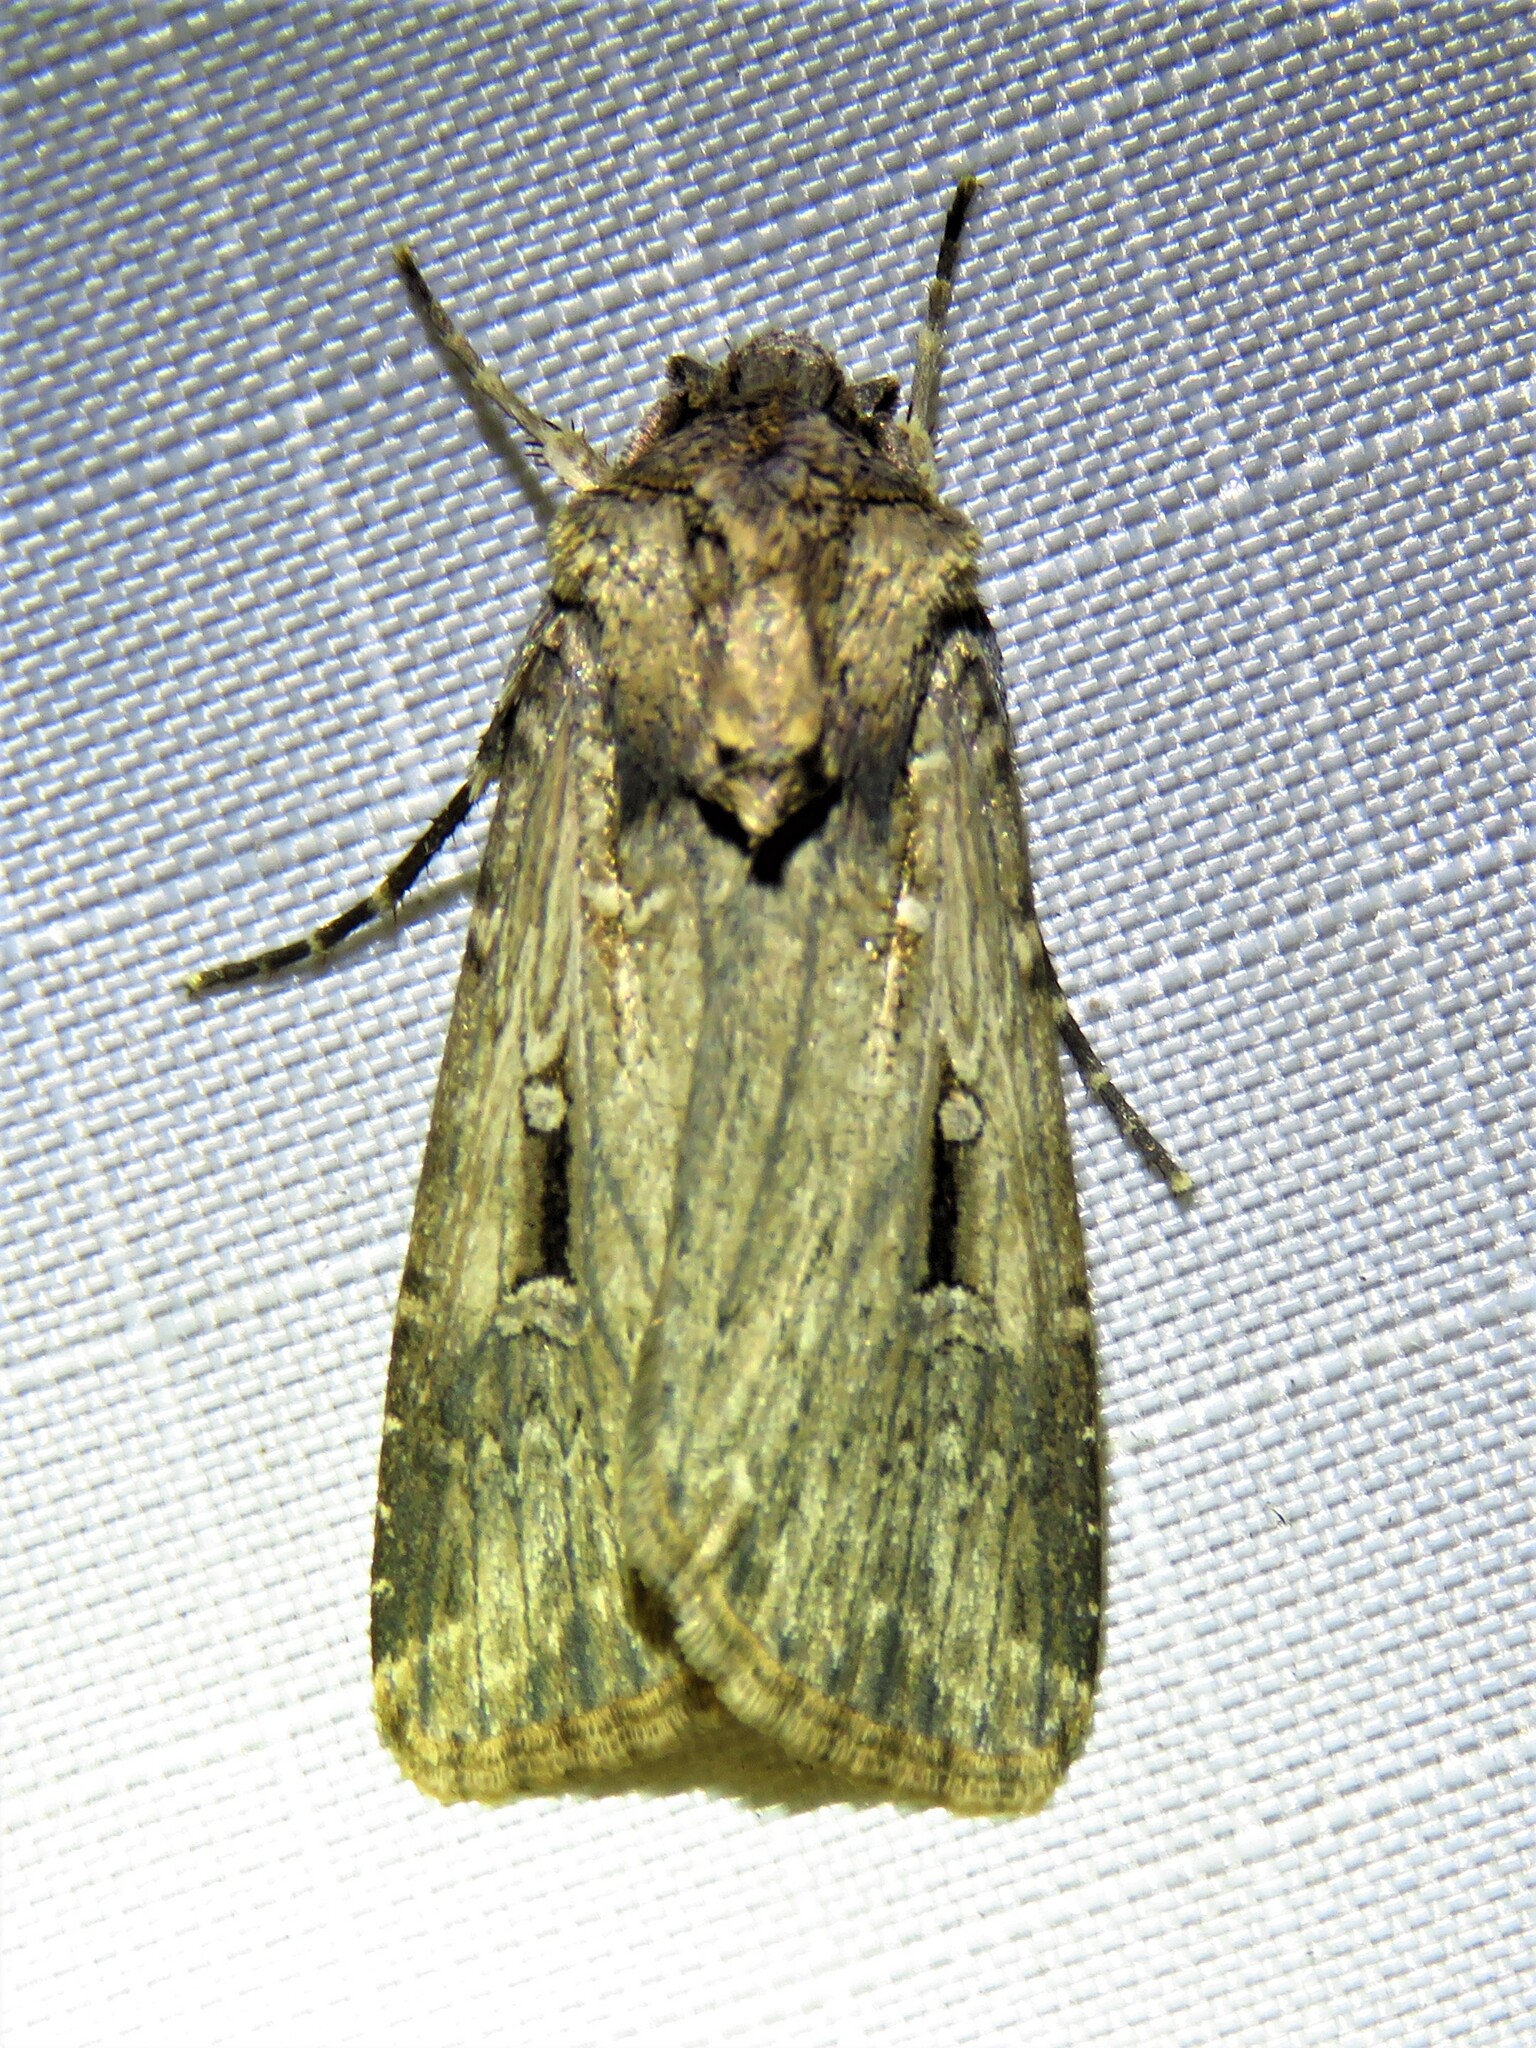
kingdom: Animalia
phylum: Arthropoda
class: Insecta
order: Lepidoptera
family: Noctuidae
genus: Feltia
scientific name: Feltia subterranea
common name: Granulate cutworm
